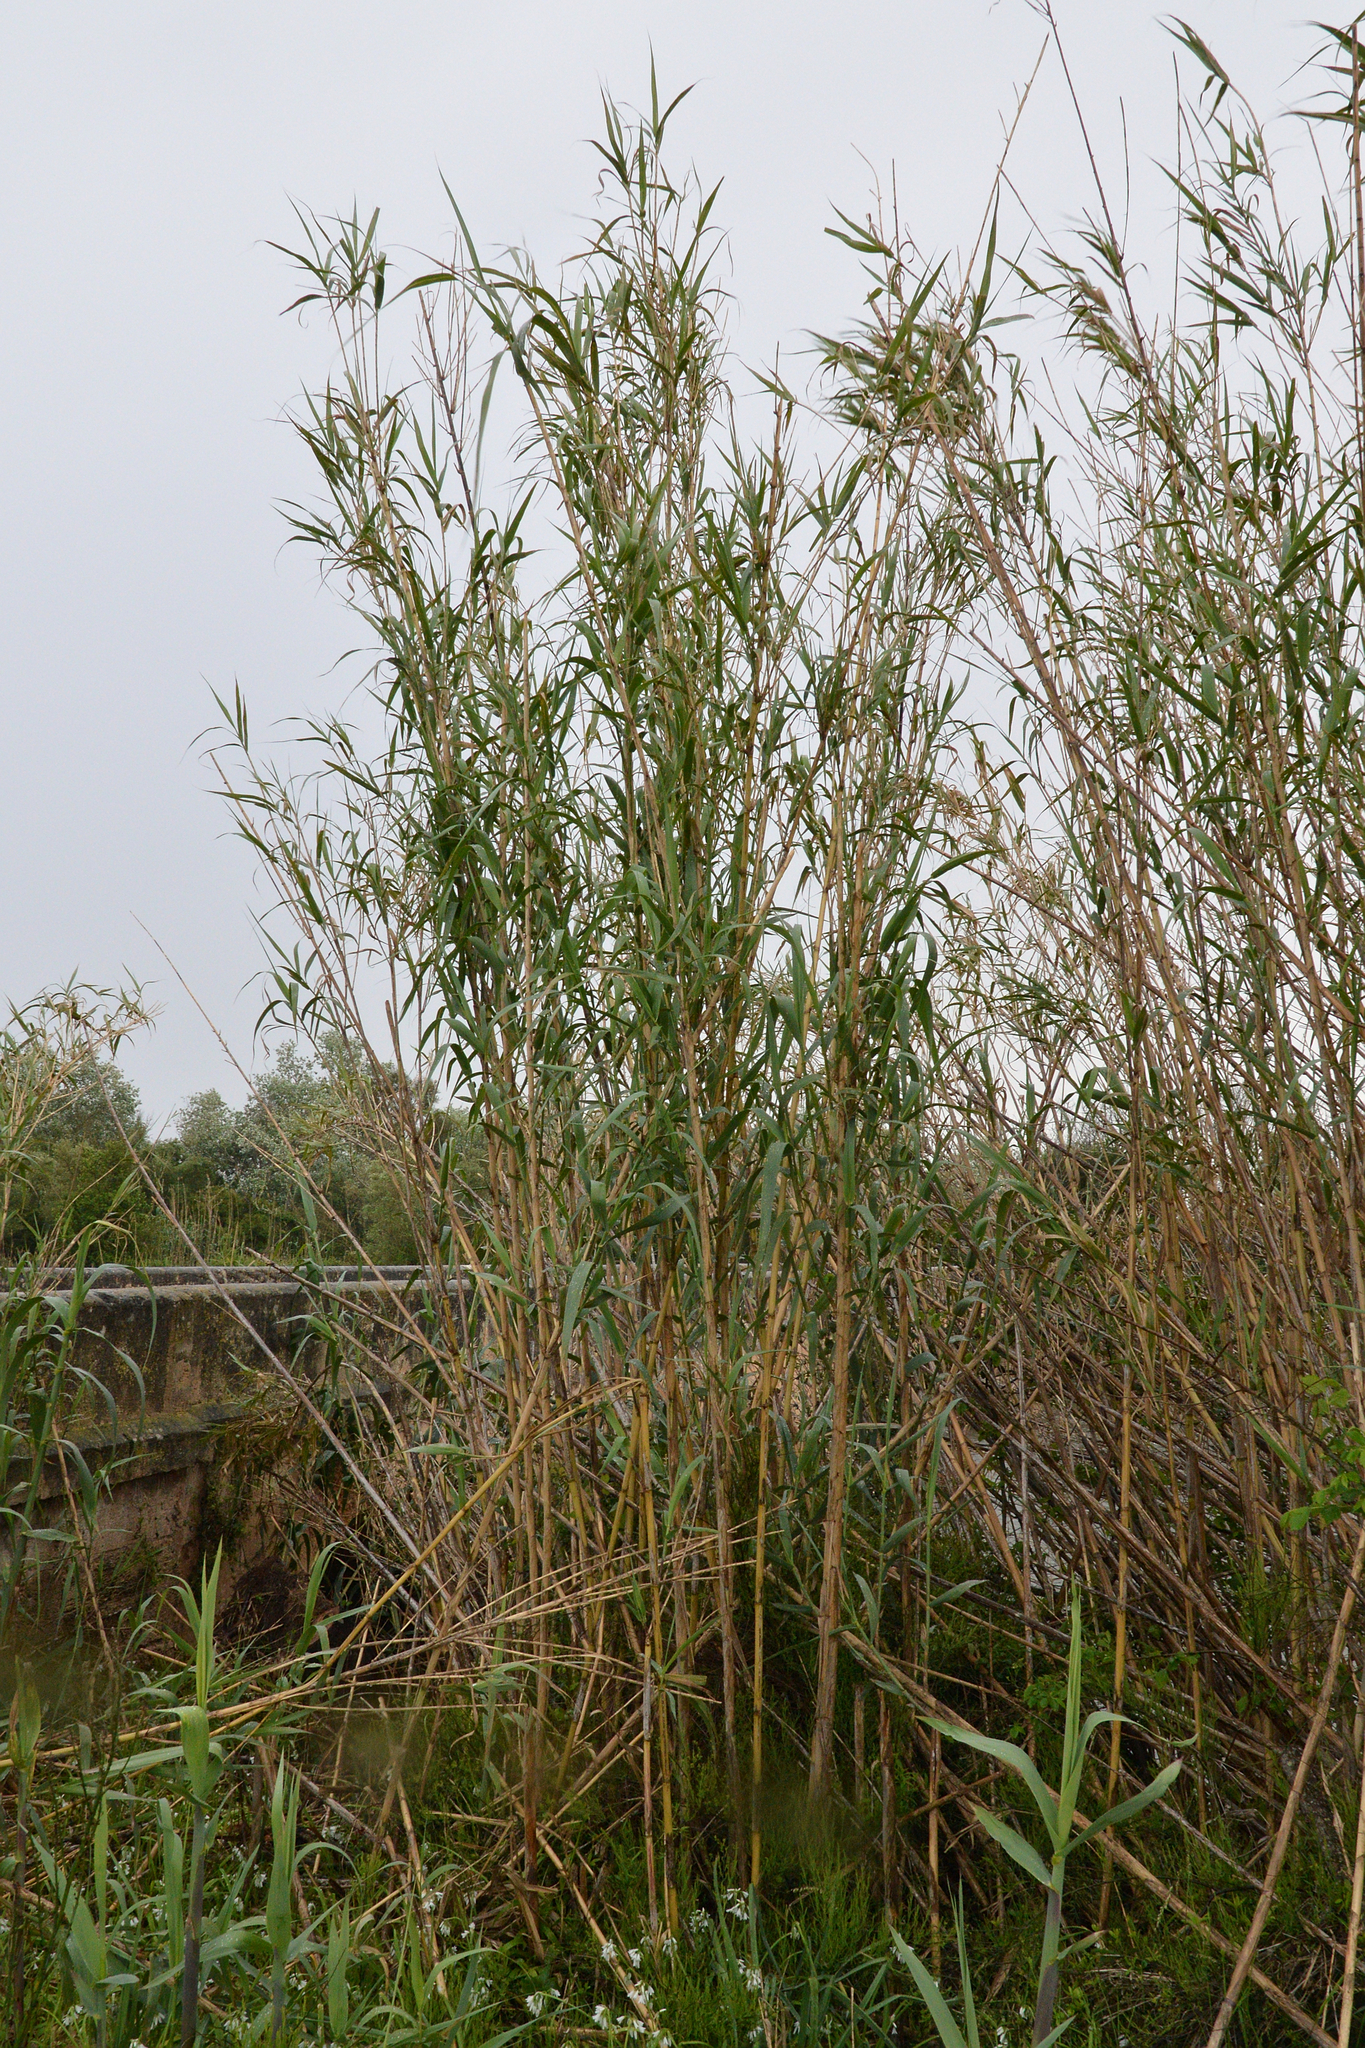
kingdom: Plantae
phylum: Tracheophyta
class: Liliopsida
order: Poales
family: Poaceae
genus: Arundo
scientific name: Arundo donax
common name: Giant reed
